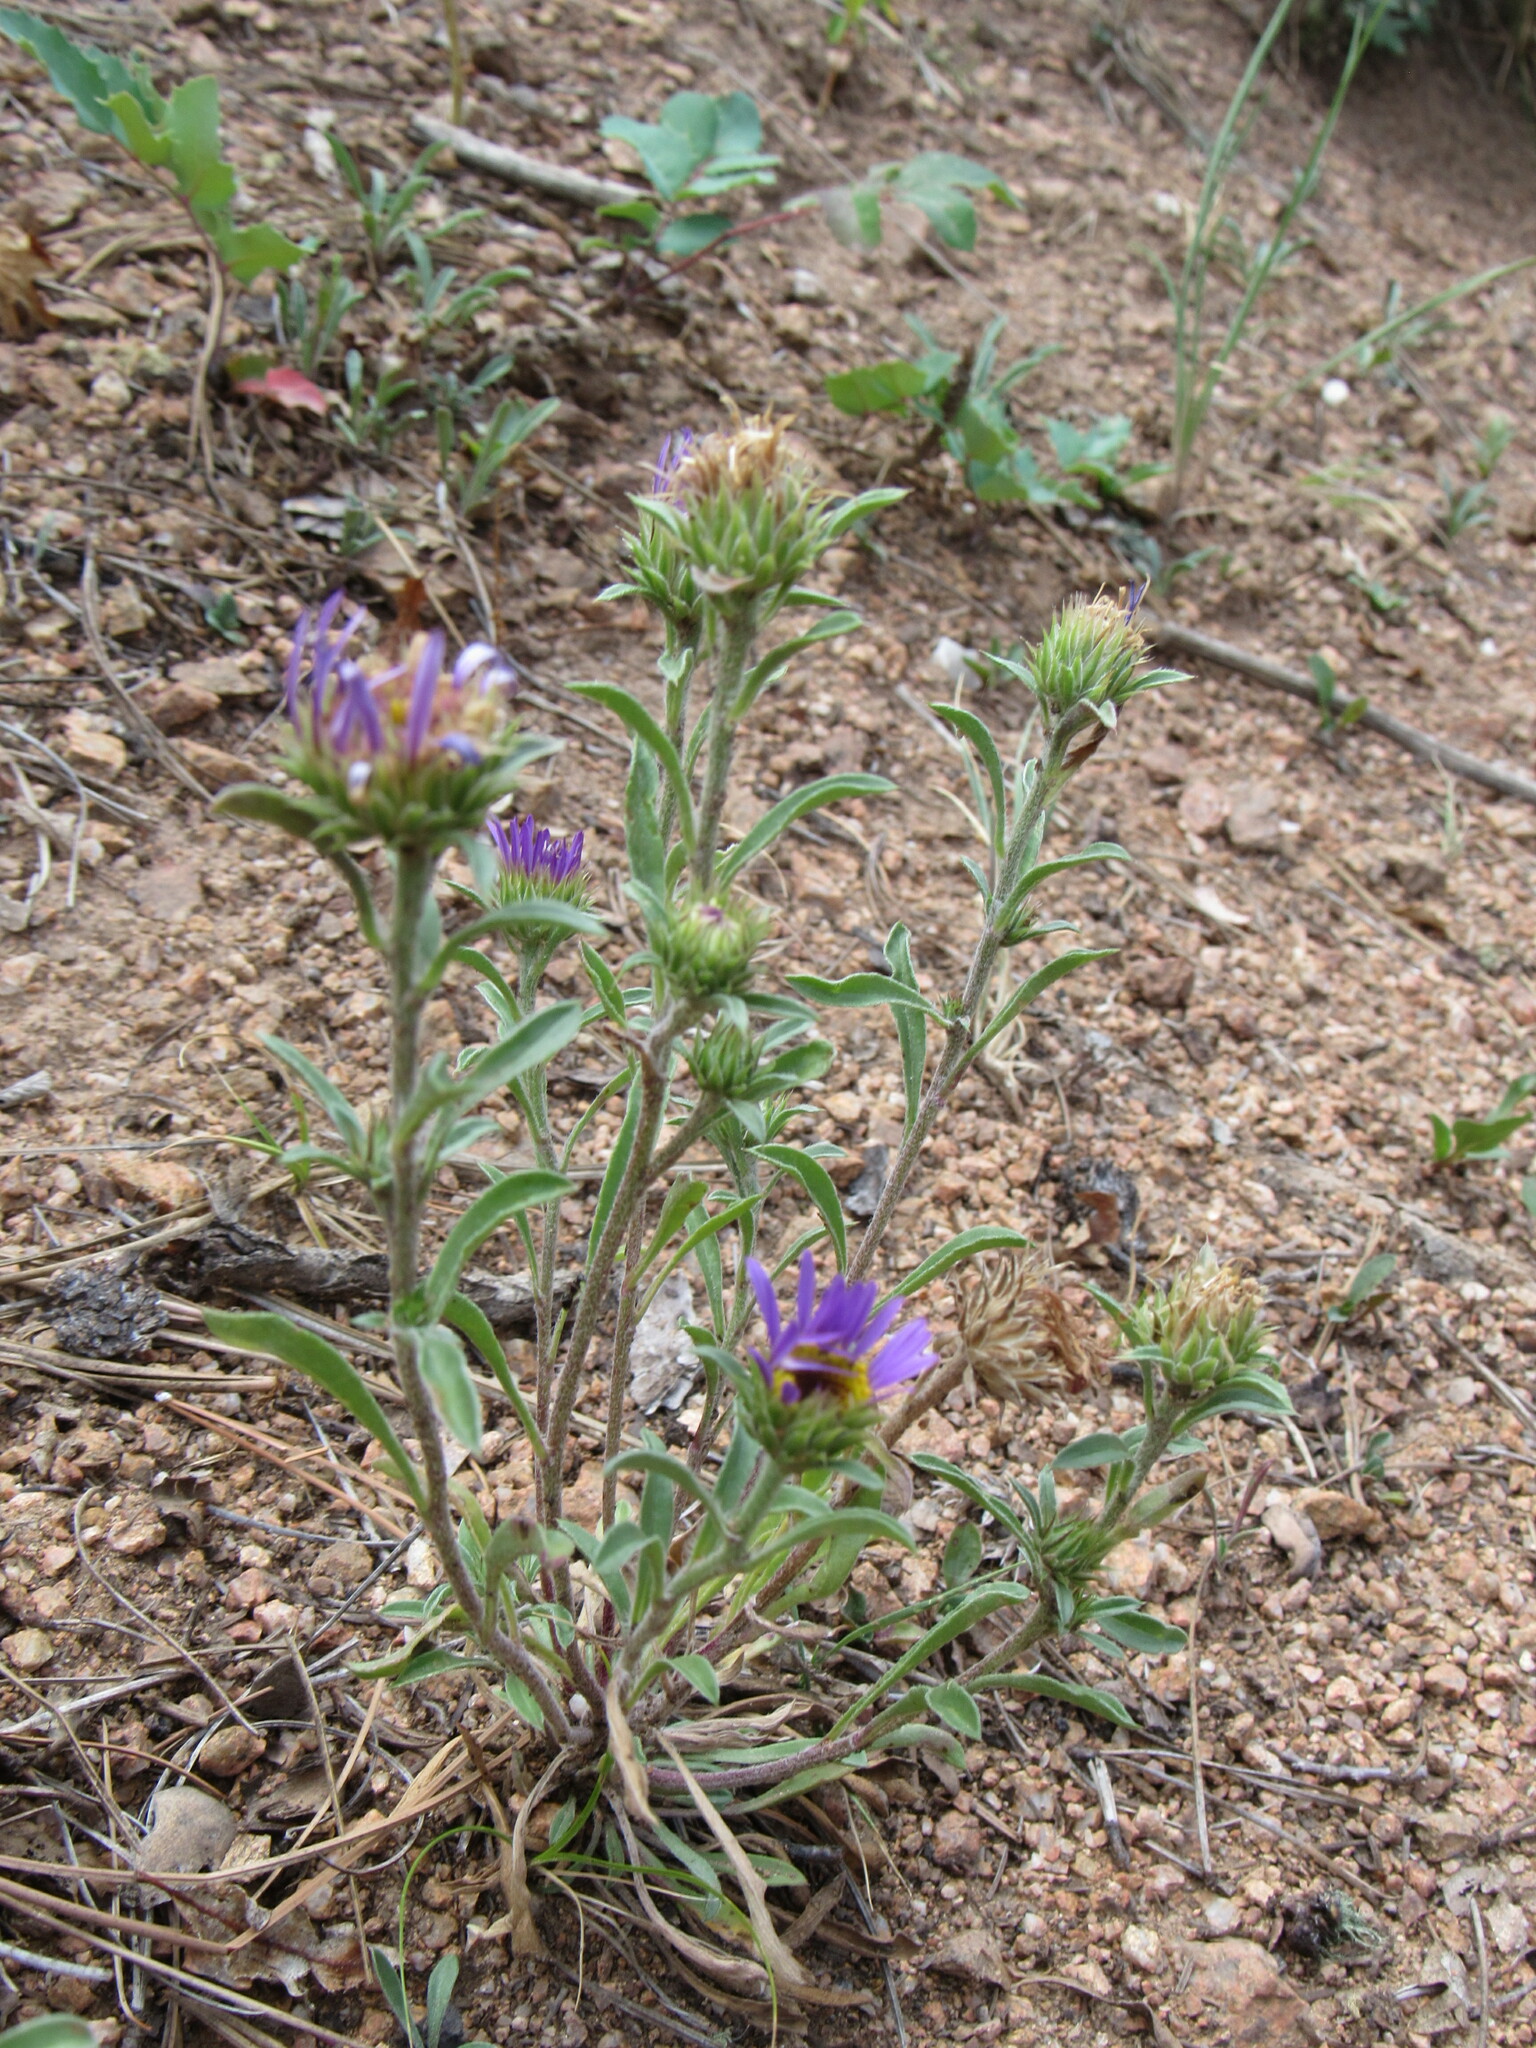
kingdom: Plantae
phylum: Tracheophyta
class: Magnoliopsida
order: Asterales
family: Asteraceae
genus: Townsendia
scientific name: Townsendia eximia
